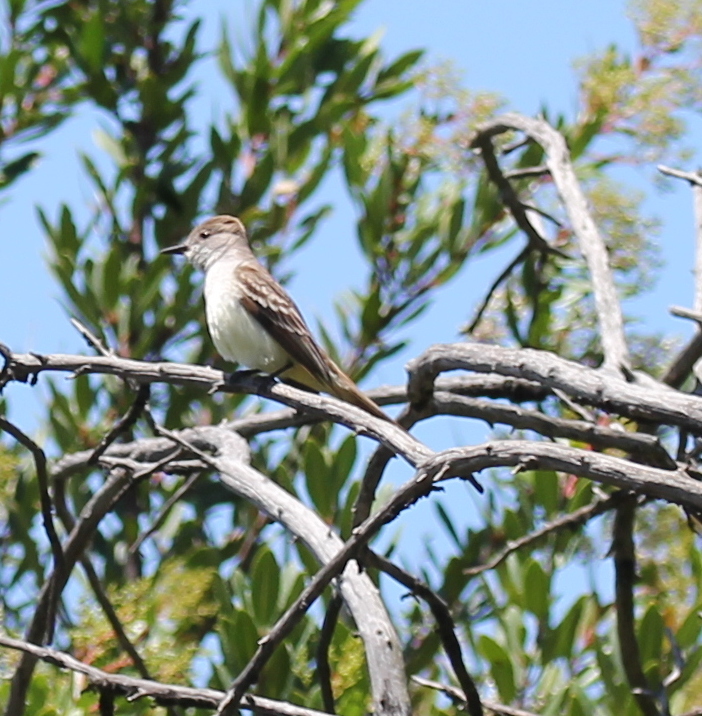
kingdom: Animalia
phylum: Chordata
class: Aves
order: Passeriformes
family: Tyrannidae
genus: Myiarchus
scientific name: Myiarchus cinerascens
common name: Ash-throated flycatcher
